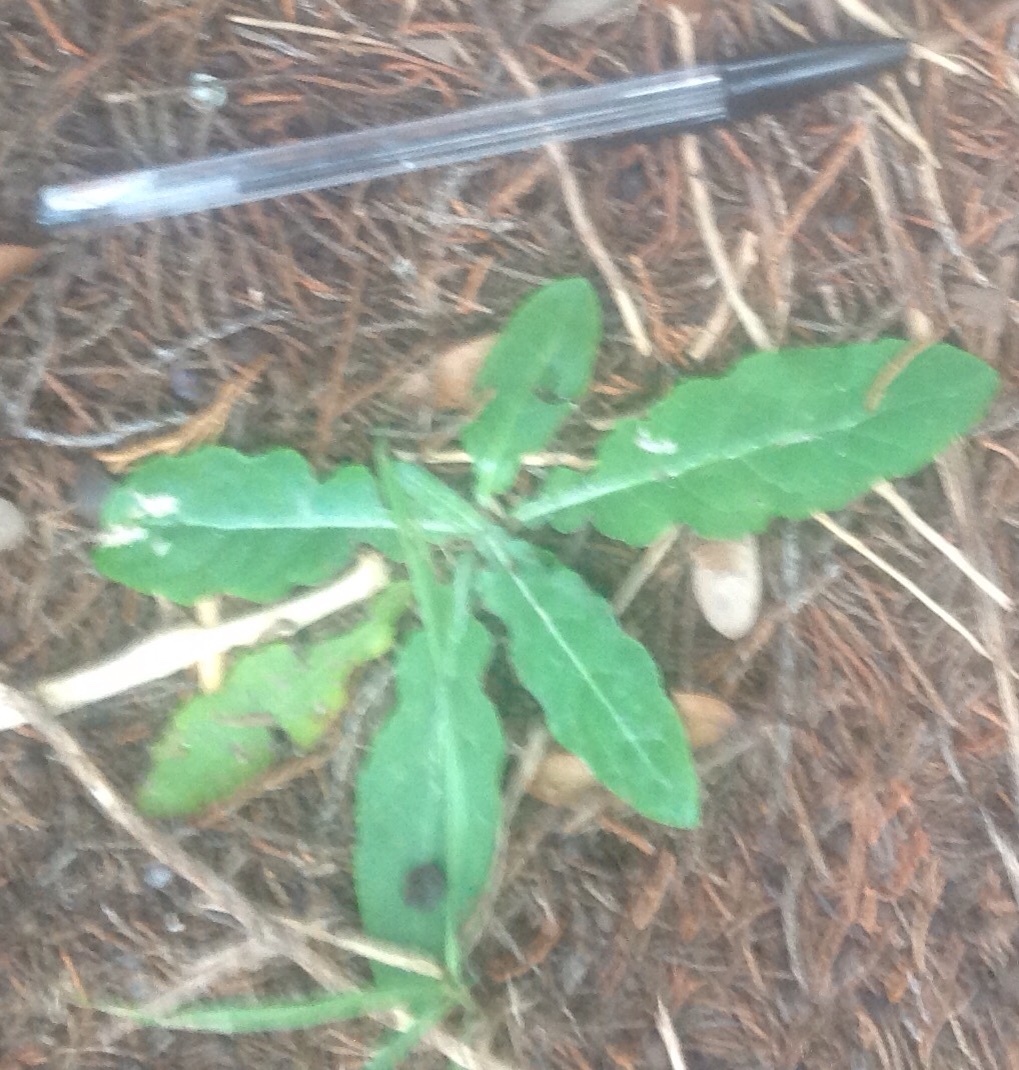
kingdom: Plantae
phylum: Tracheophyta
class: Magnoliopsida
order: Asterales
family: Asteraceae
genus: Chaptalia
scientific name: Chaptalia
